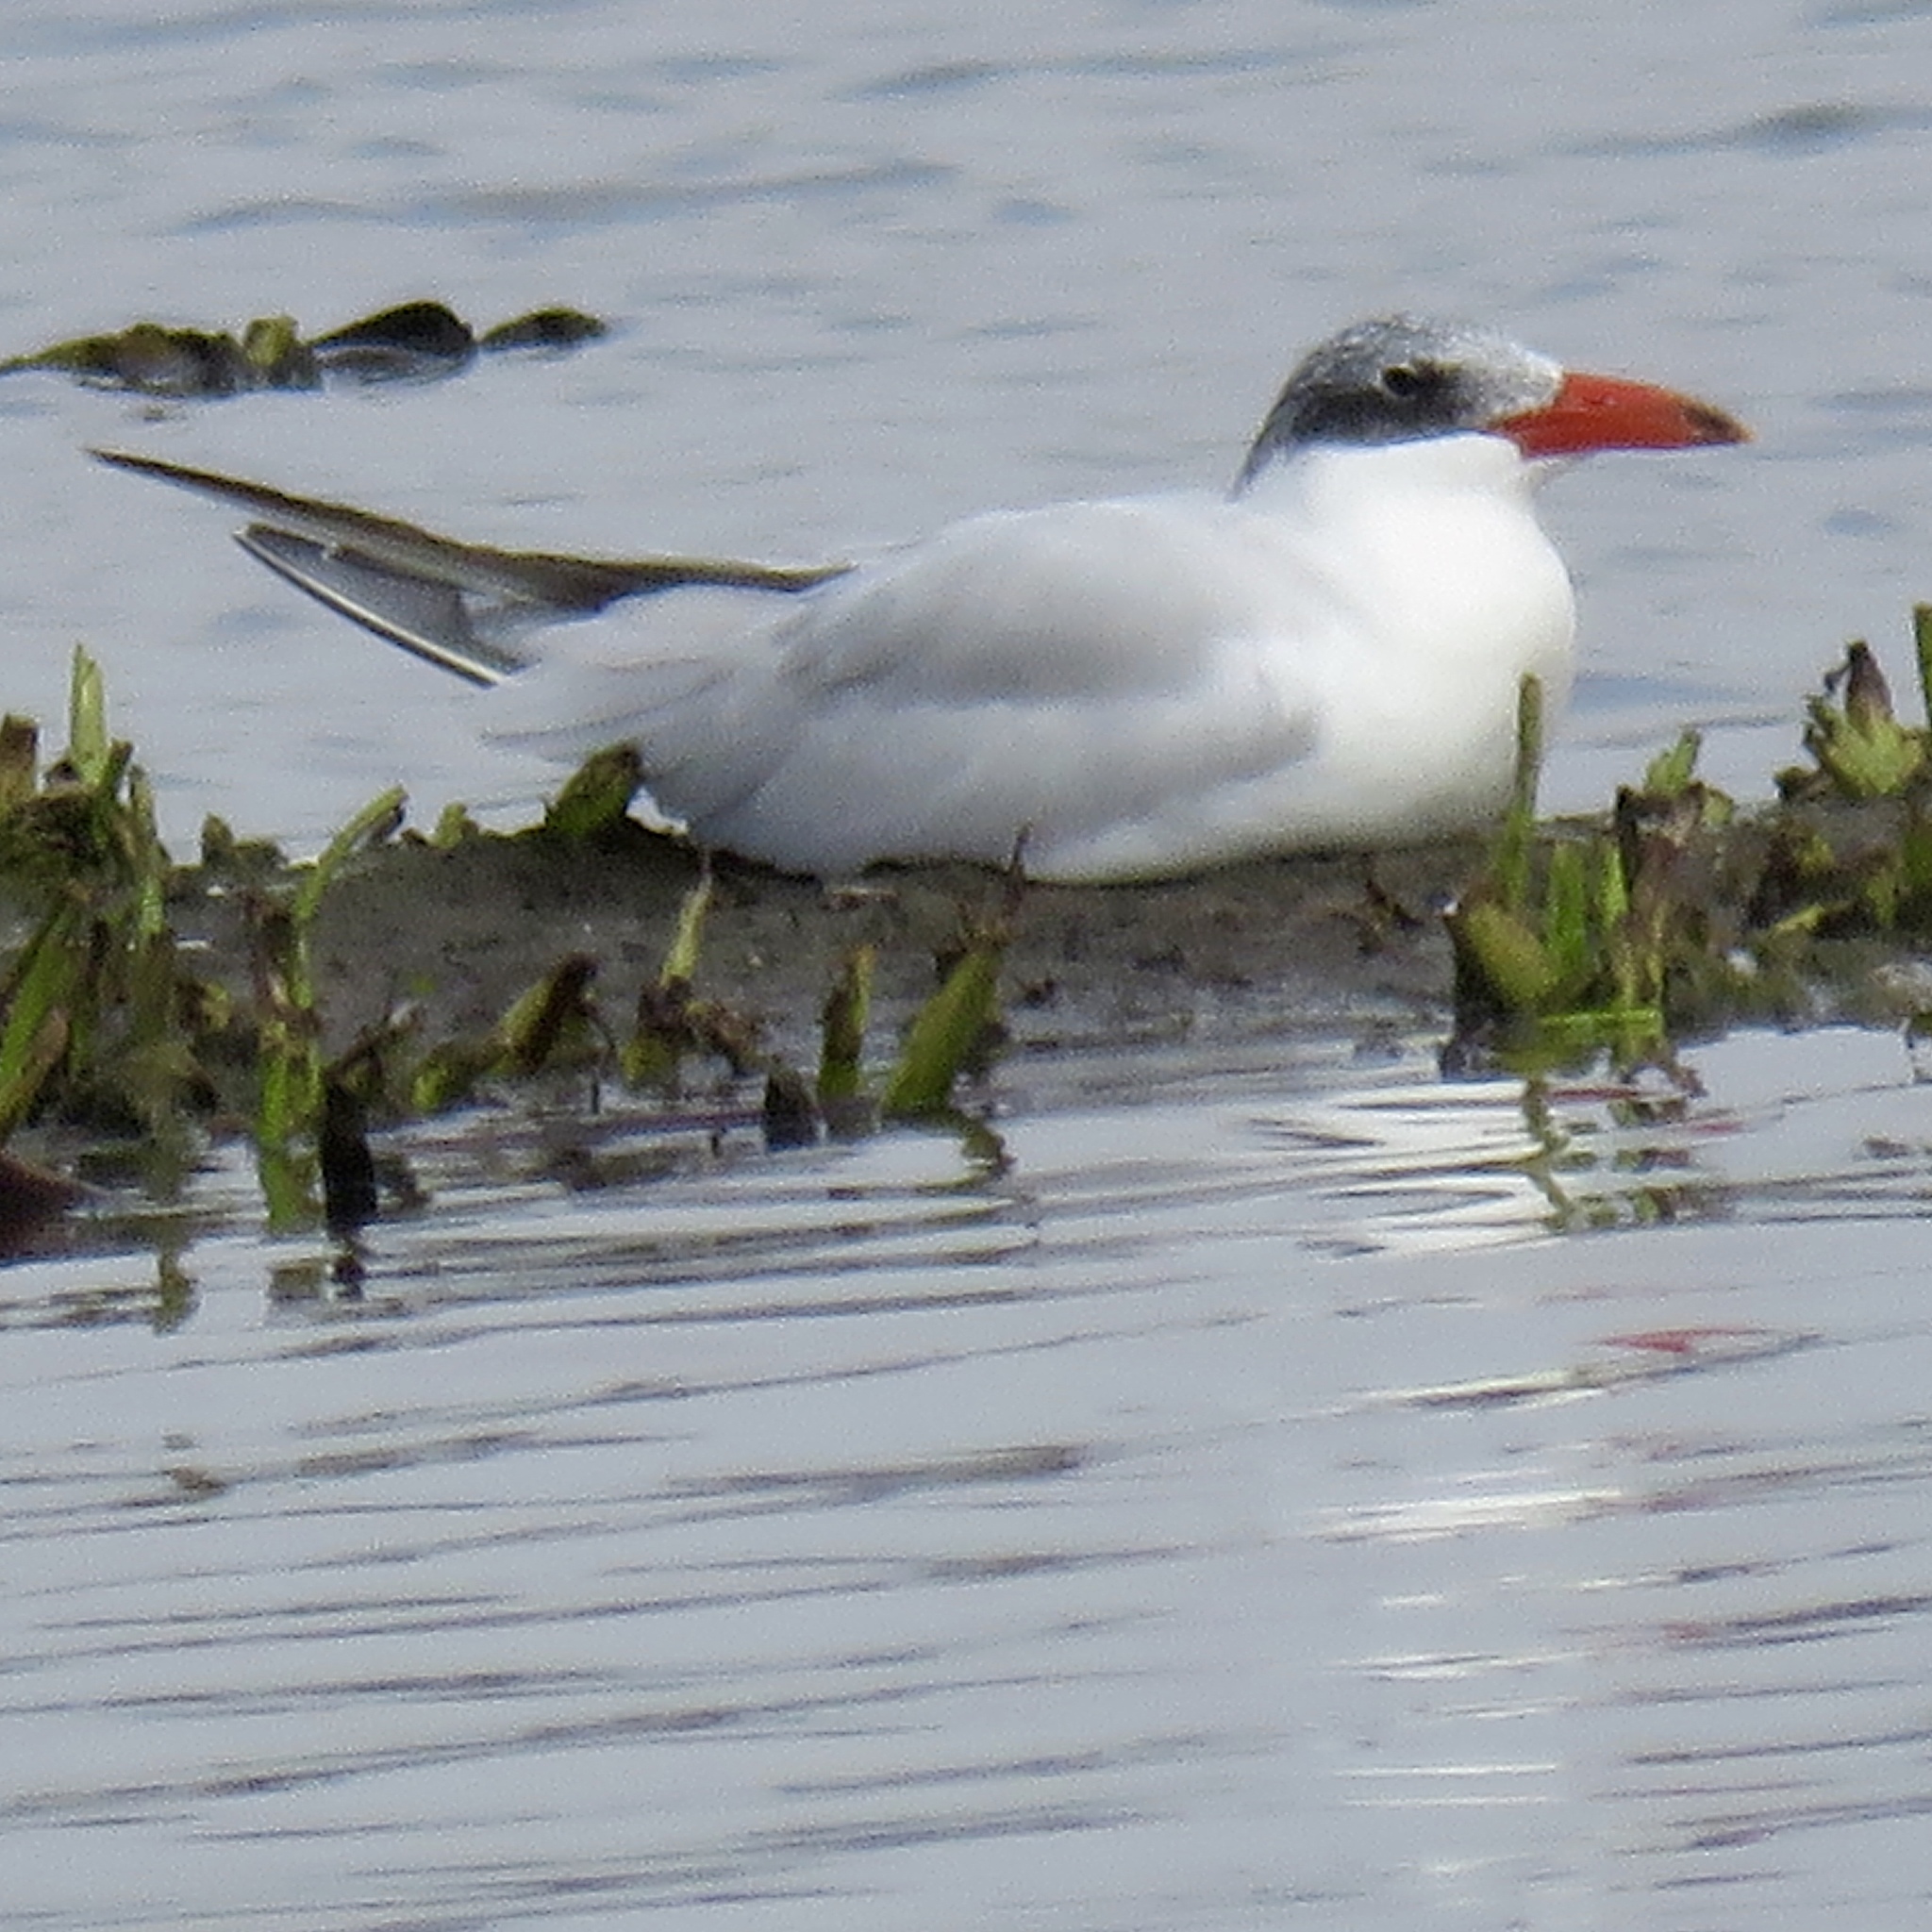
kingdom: Animalia
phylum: Chordata
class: Aves
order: Charadriiformes
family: Laridae
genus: Hydroprogne
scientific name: Hydroprogne caspia
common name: Caspian tern
